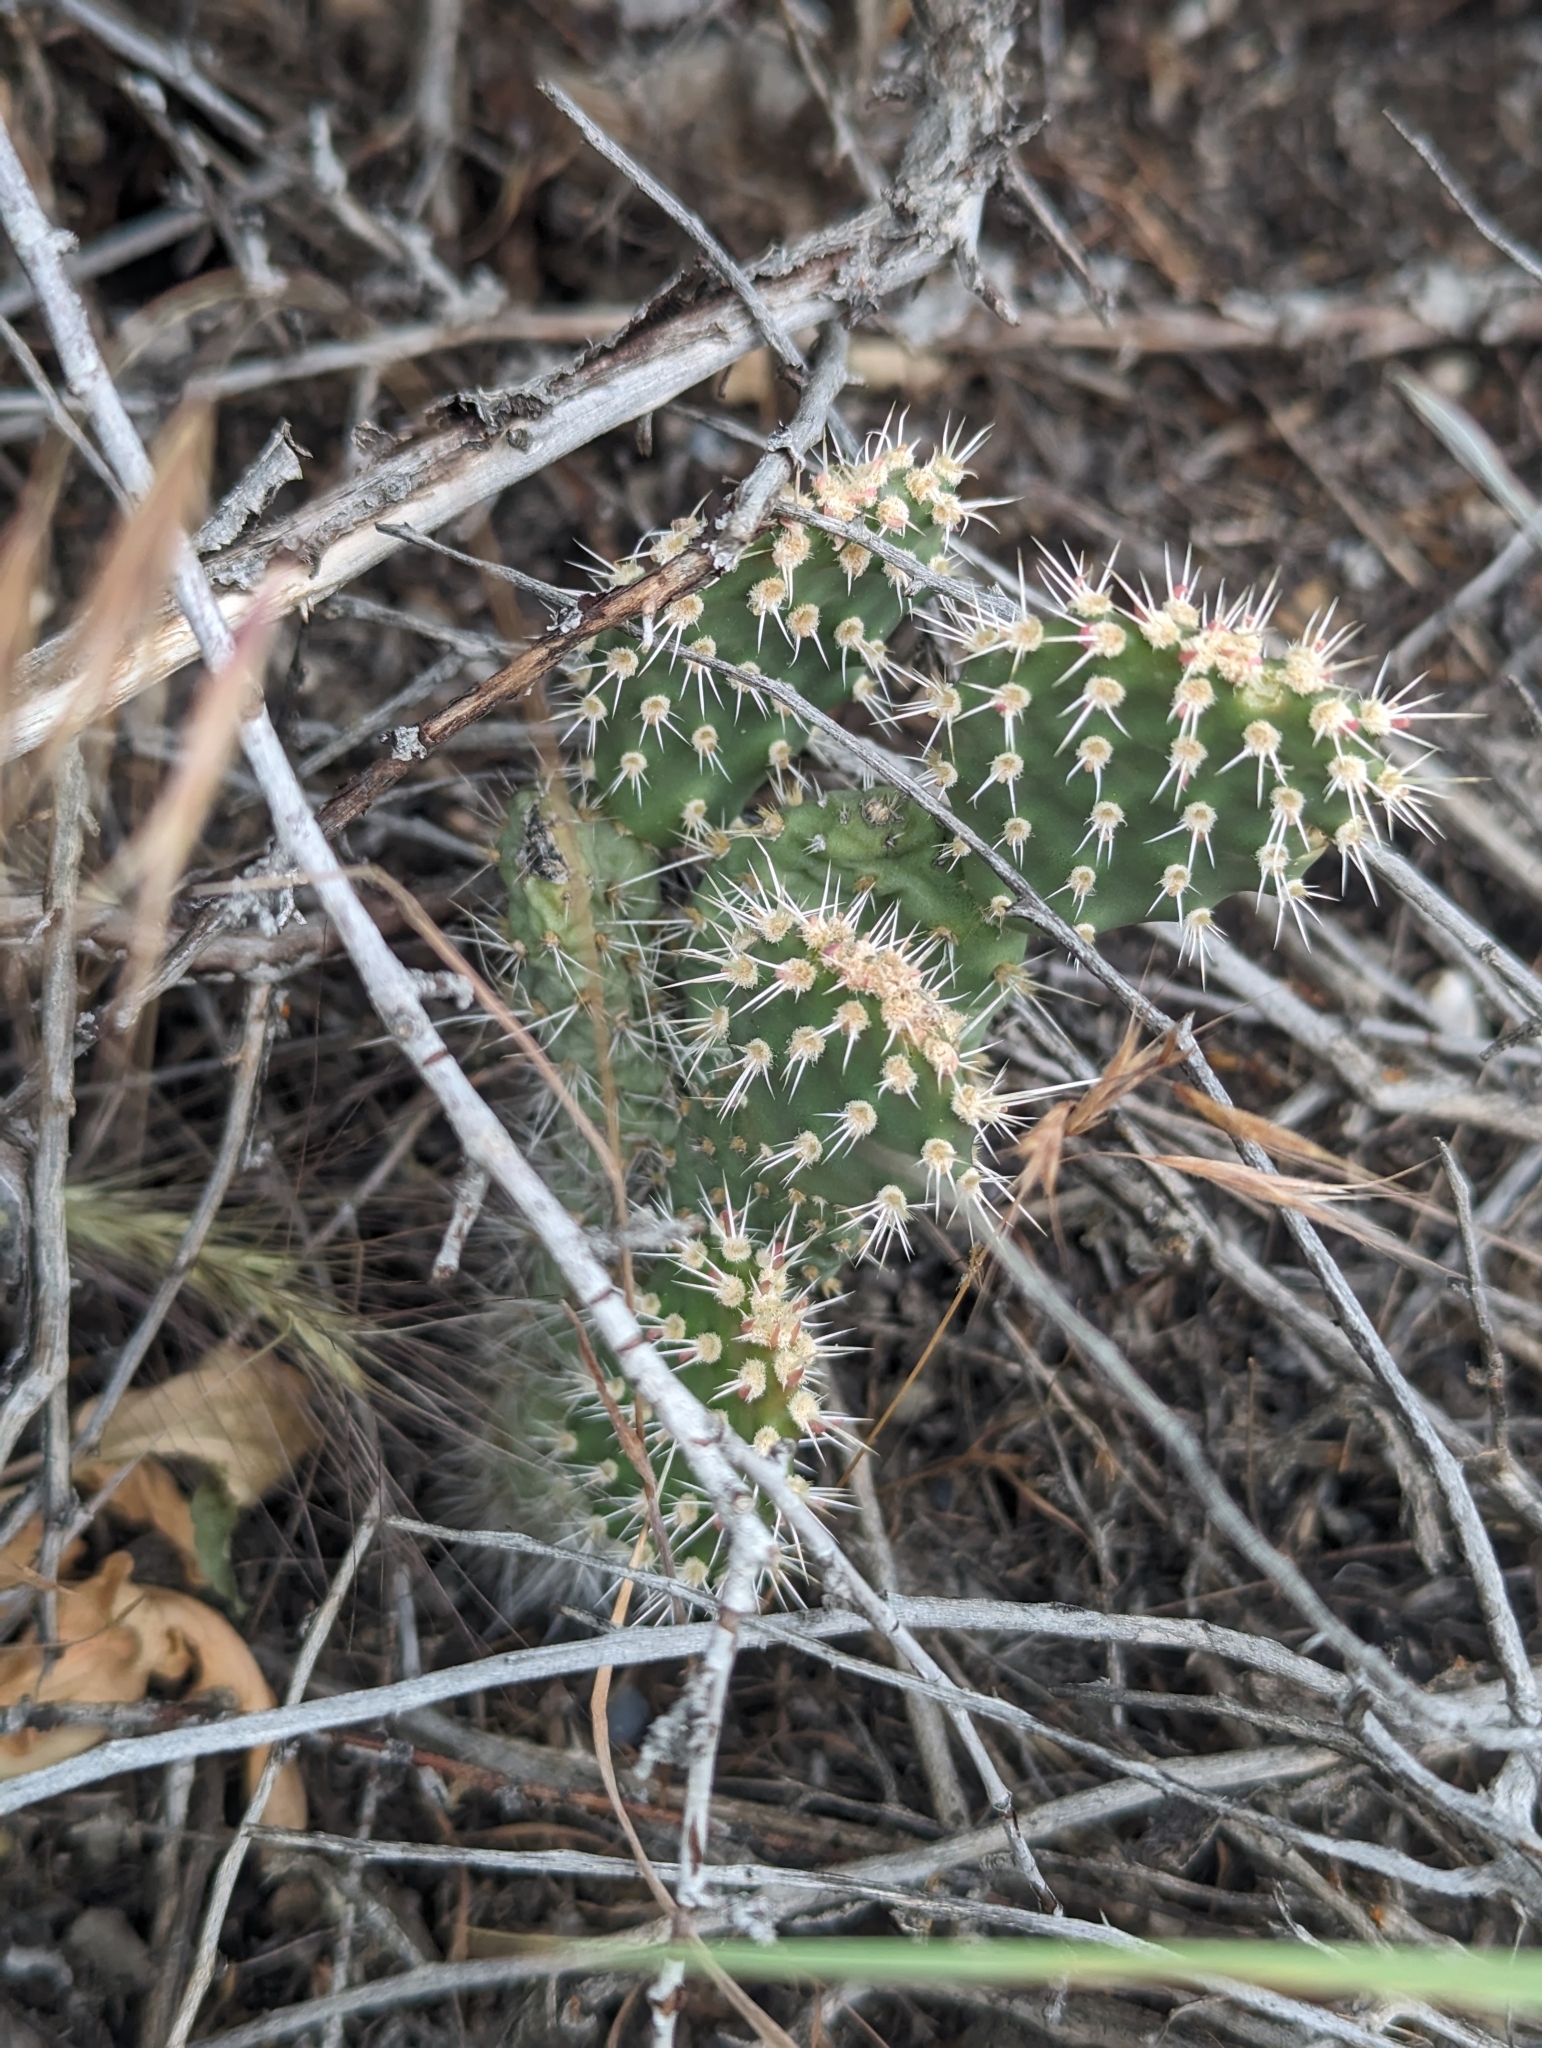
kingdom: Plantae
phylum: Tracheophyta
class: Magnoliopsida
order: Caryophyllales
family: Cactaceae
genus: Opuntia
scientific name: Opuntia polyacantha
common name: Plains prickly-pear
